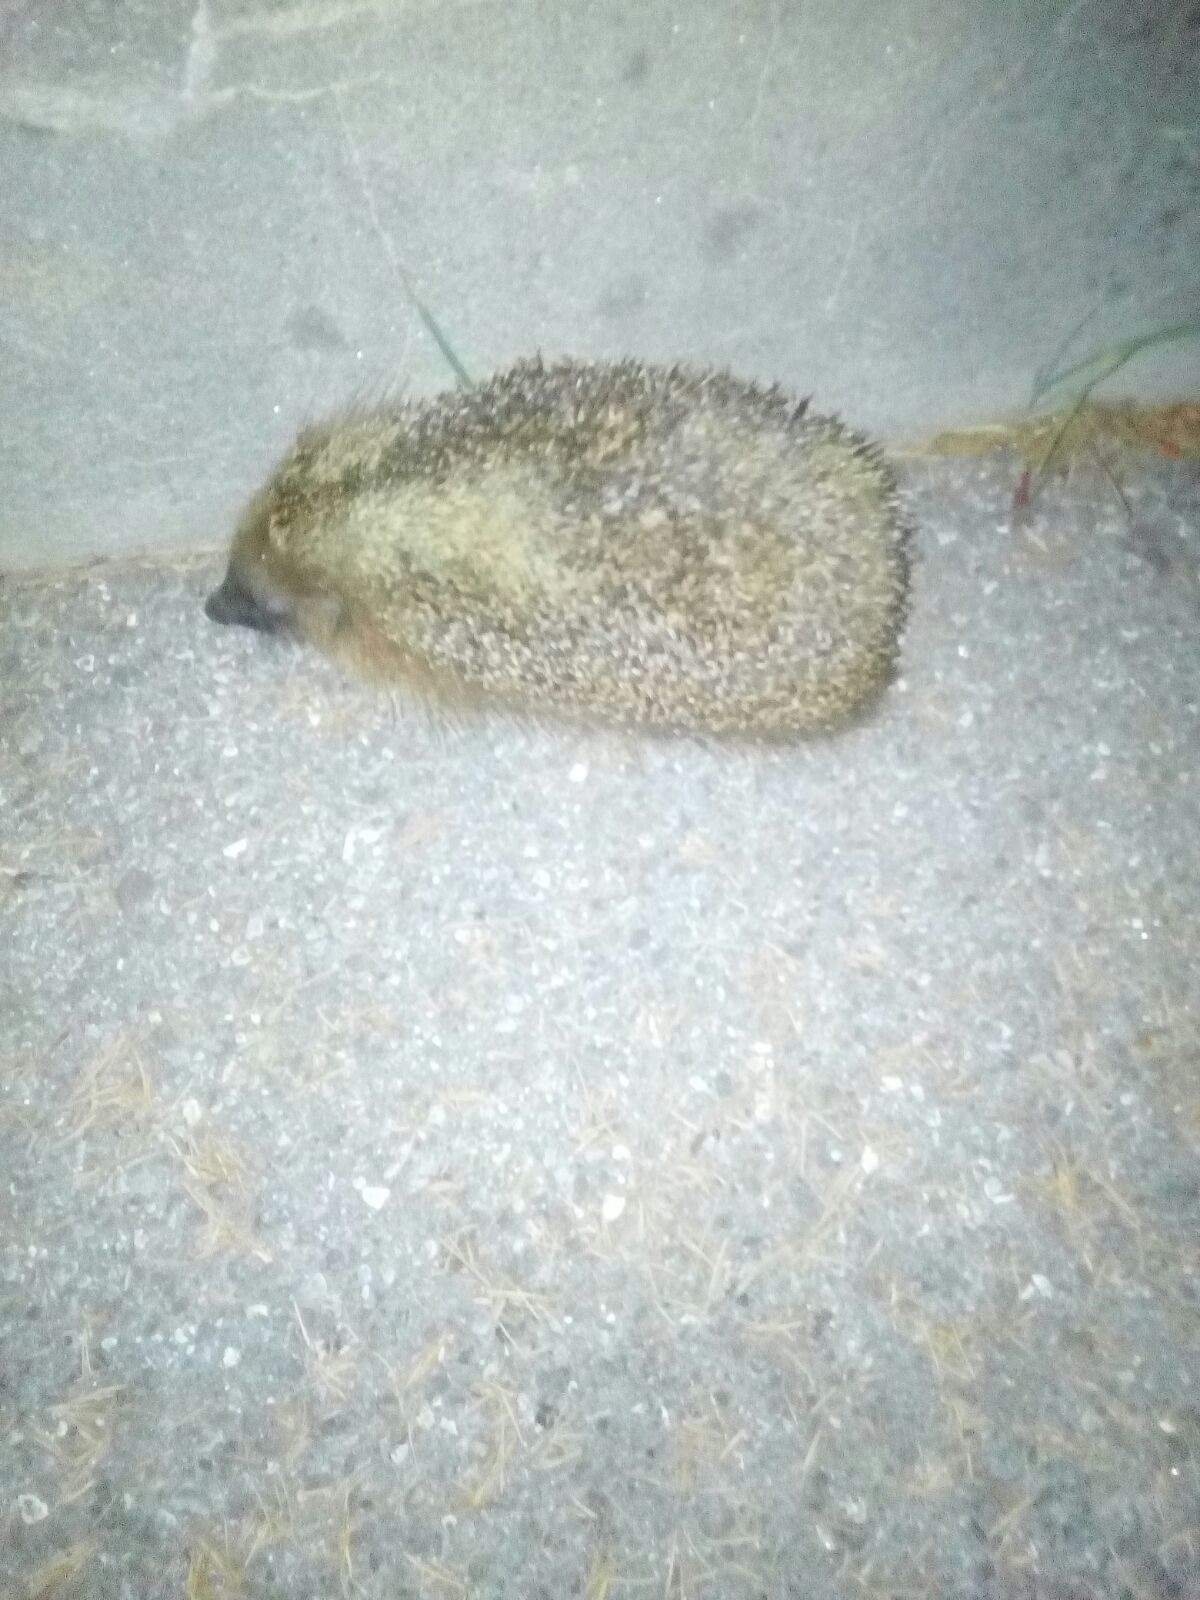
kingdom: Animalia
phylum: Chordata
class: Mammalia
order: Erinaceomorpha
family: Erinaceidae
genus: Erinaceus
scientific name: Erinaceus europaeus
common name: West european hedgehog
